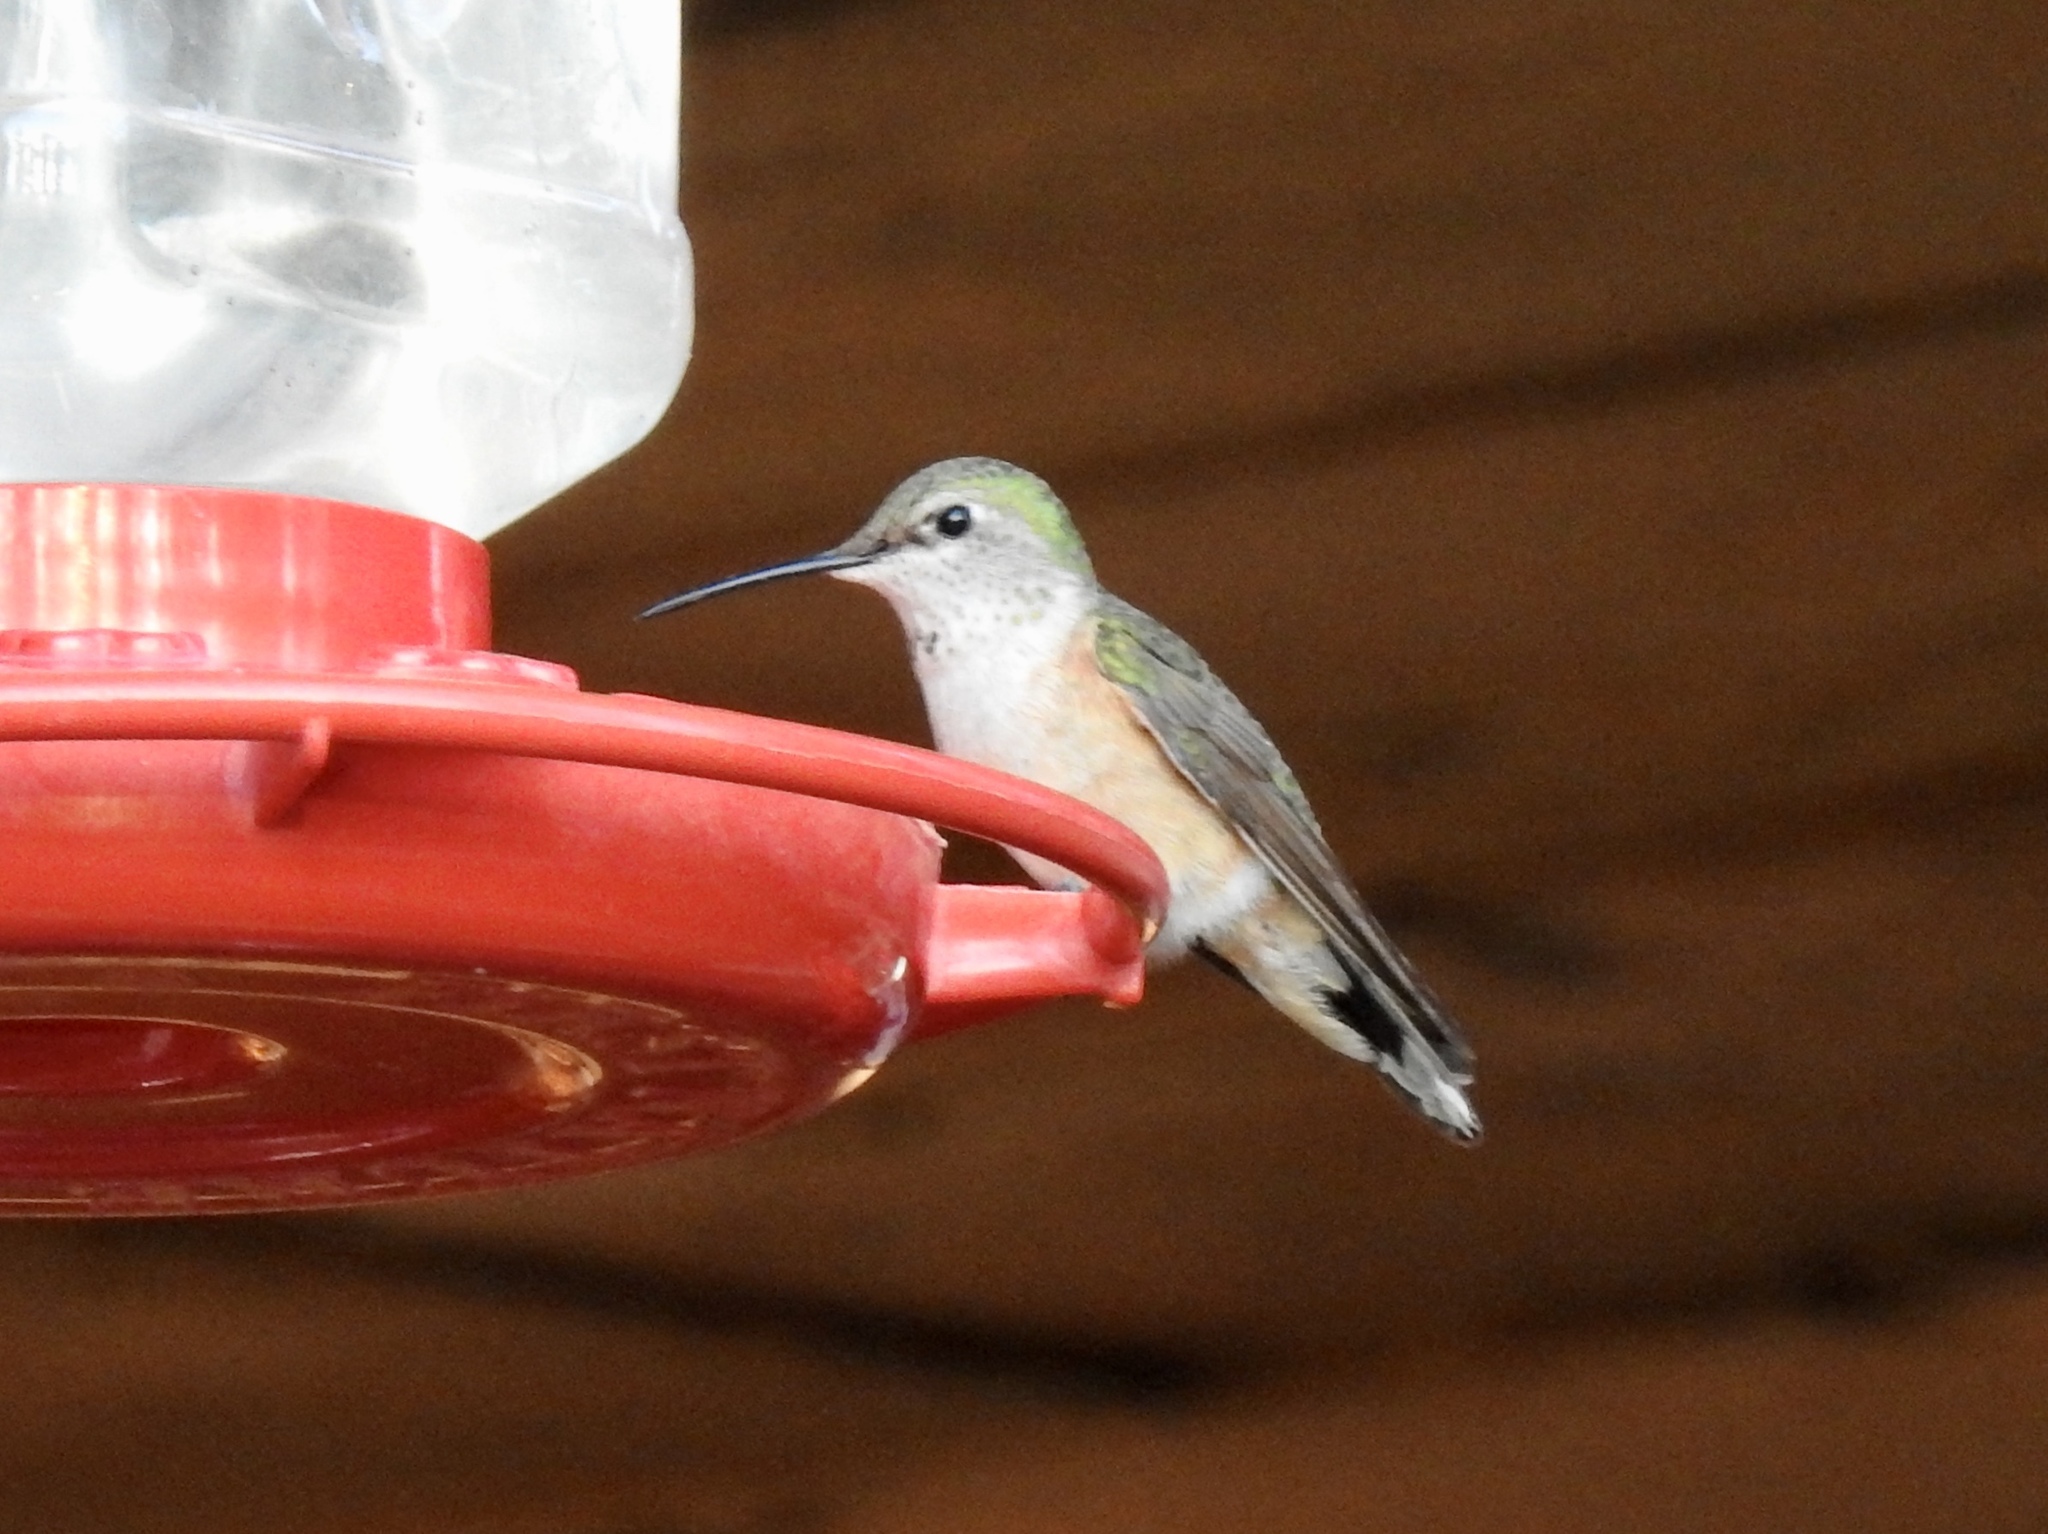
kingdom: Animalia
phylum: Chordata
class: Aves
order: Apodiformes
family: Trochilidae
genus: Selasphorus
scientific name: Selasphorus platycercus
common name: Broad-tailed hummingbird
